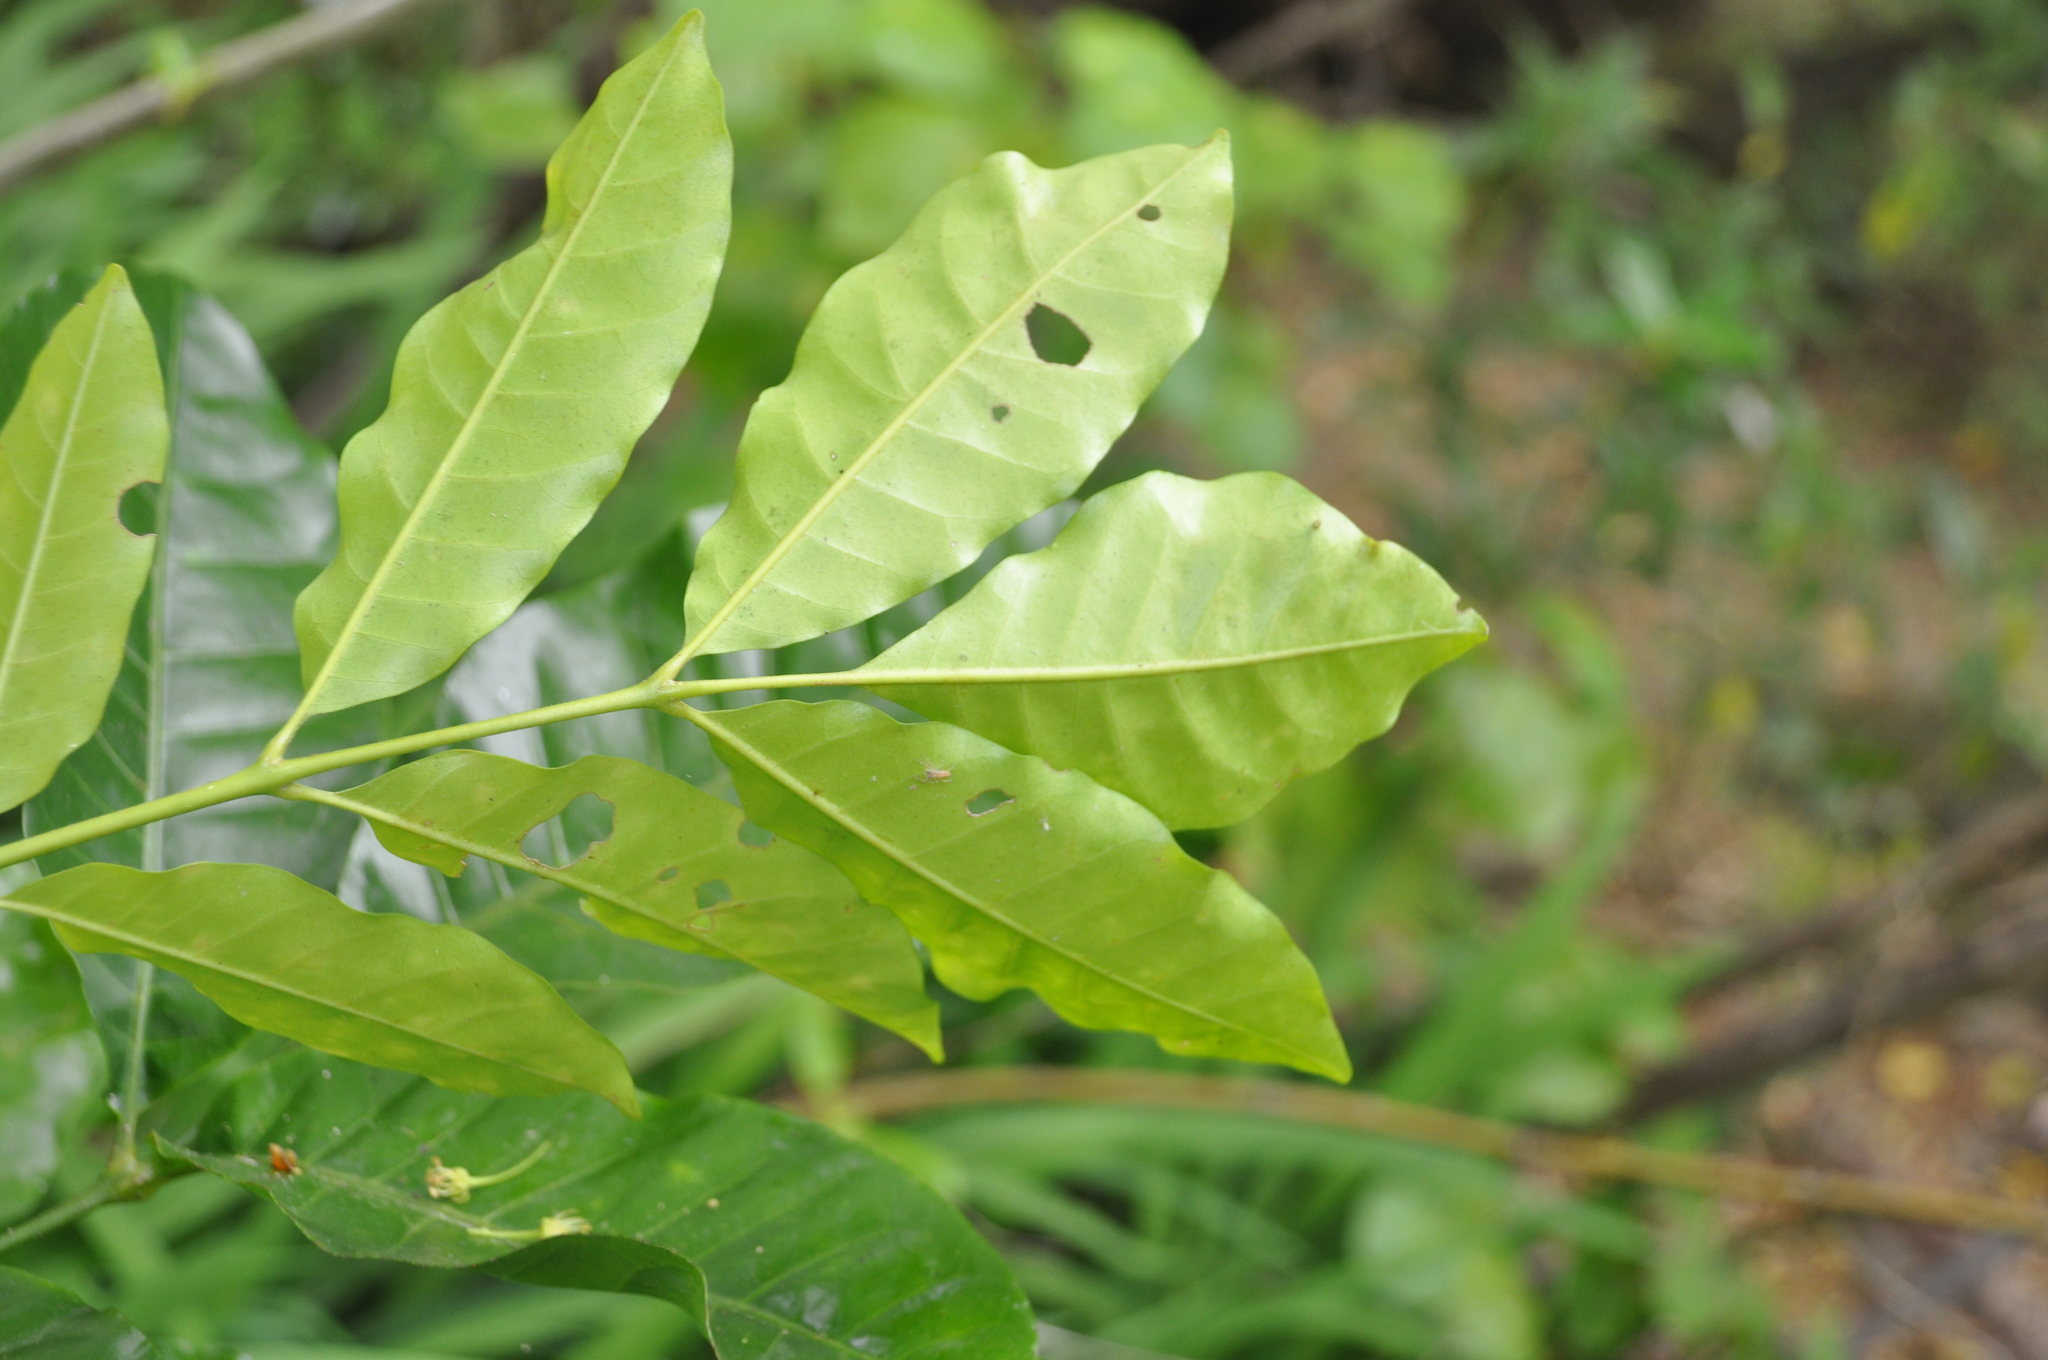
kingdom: Plantae
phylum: Tracheophyta
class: Magnoliopsida
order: Sapindales
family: Meliaceae
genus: Didymocheton
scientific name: Didymocheton spectabilis
